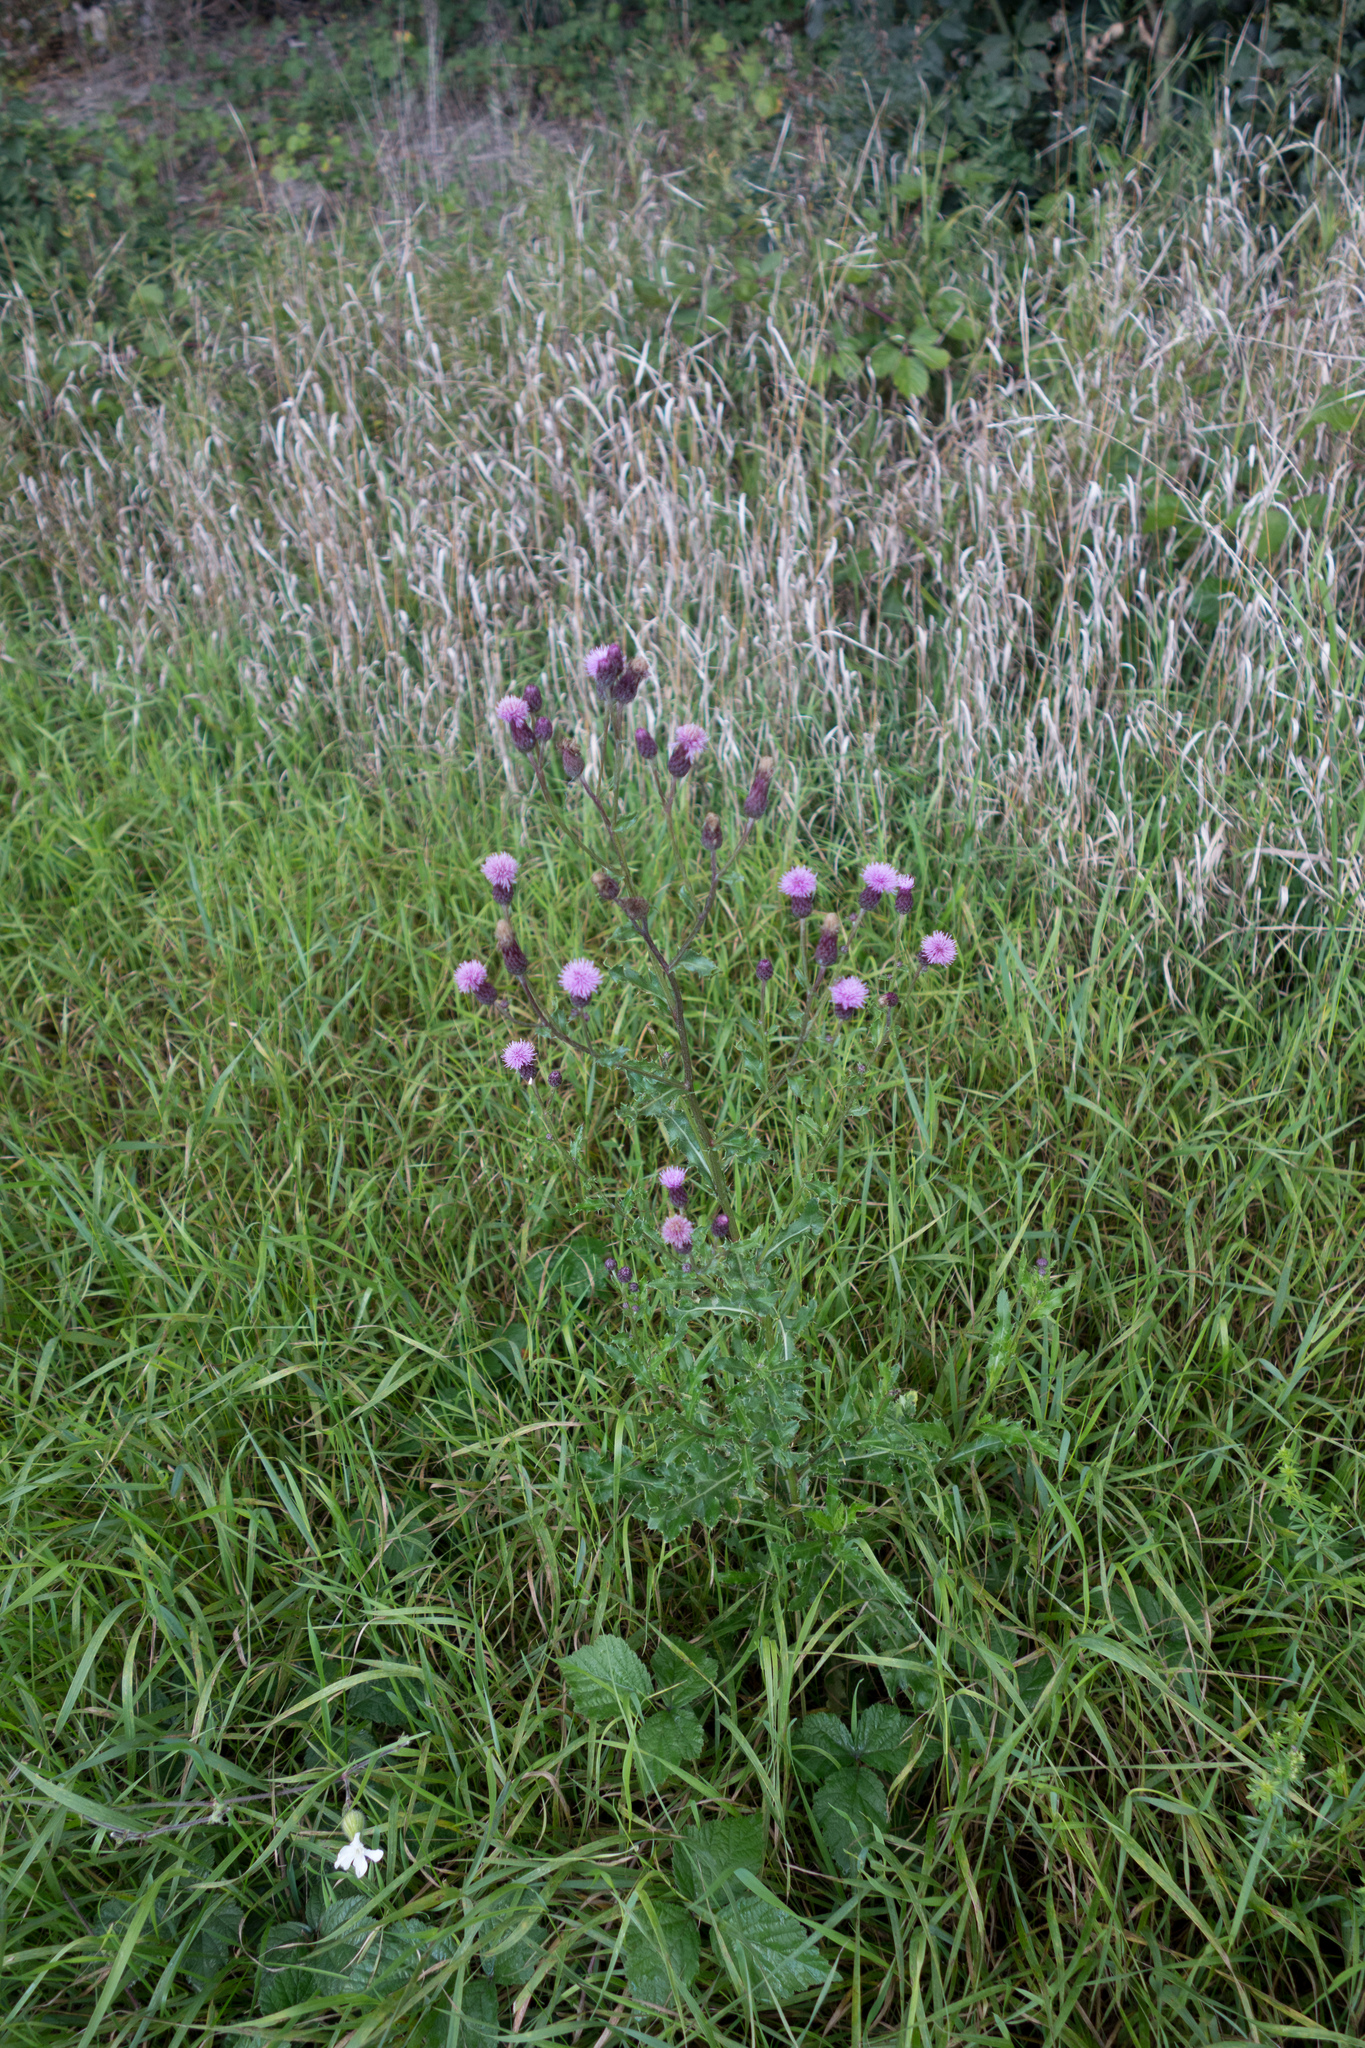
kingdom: Plantae
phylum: Tracheophyta
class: Magnoliopsida
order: Asterales
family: Asteraceae
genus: Cirsium
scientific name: Cirsium arvense
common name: Creeping thistle
